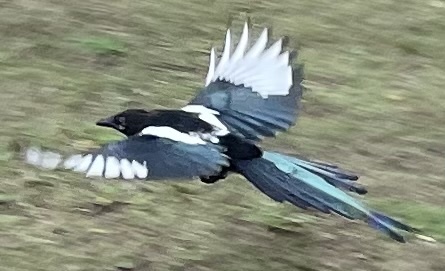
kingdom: Animalia
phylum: Chordata
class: Aves
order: Passeriformes
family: Corvidae
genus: Pica
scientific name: Pica hudsonia
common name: Black-billed magpie
